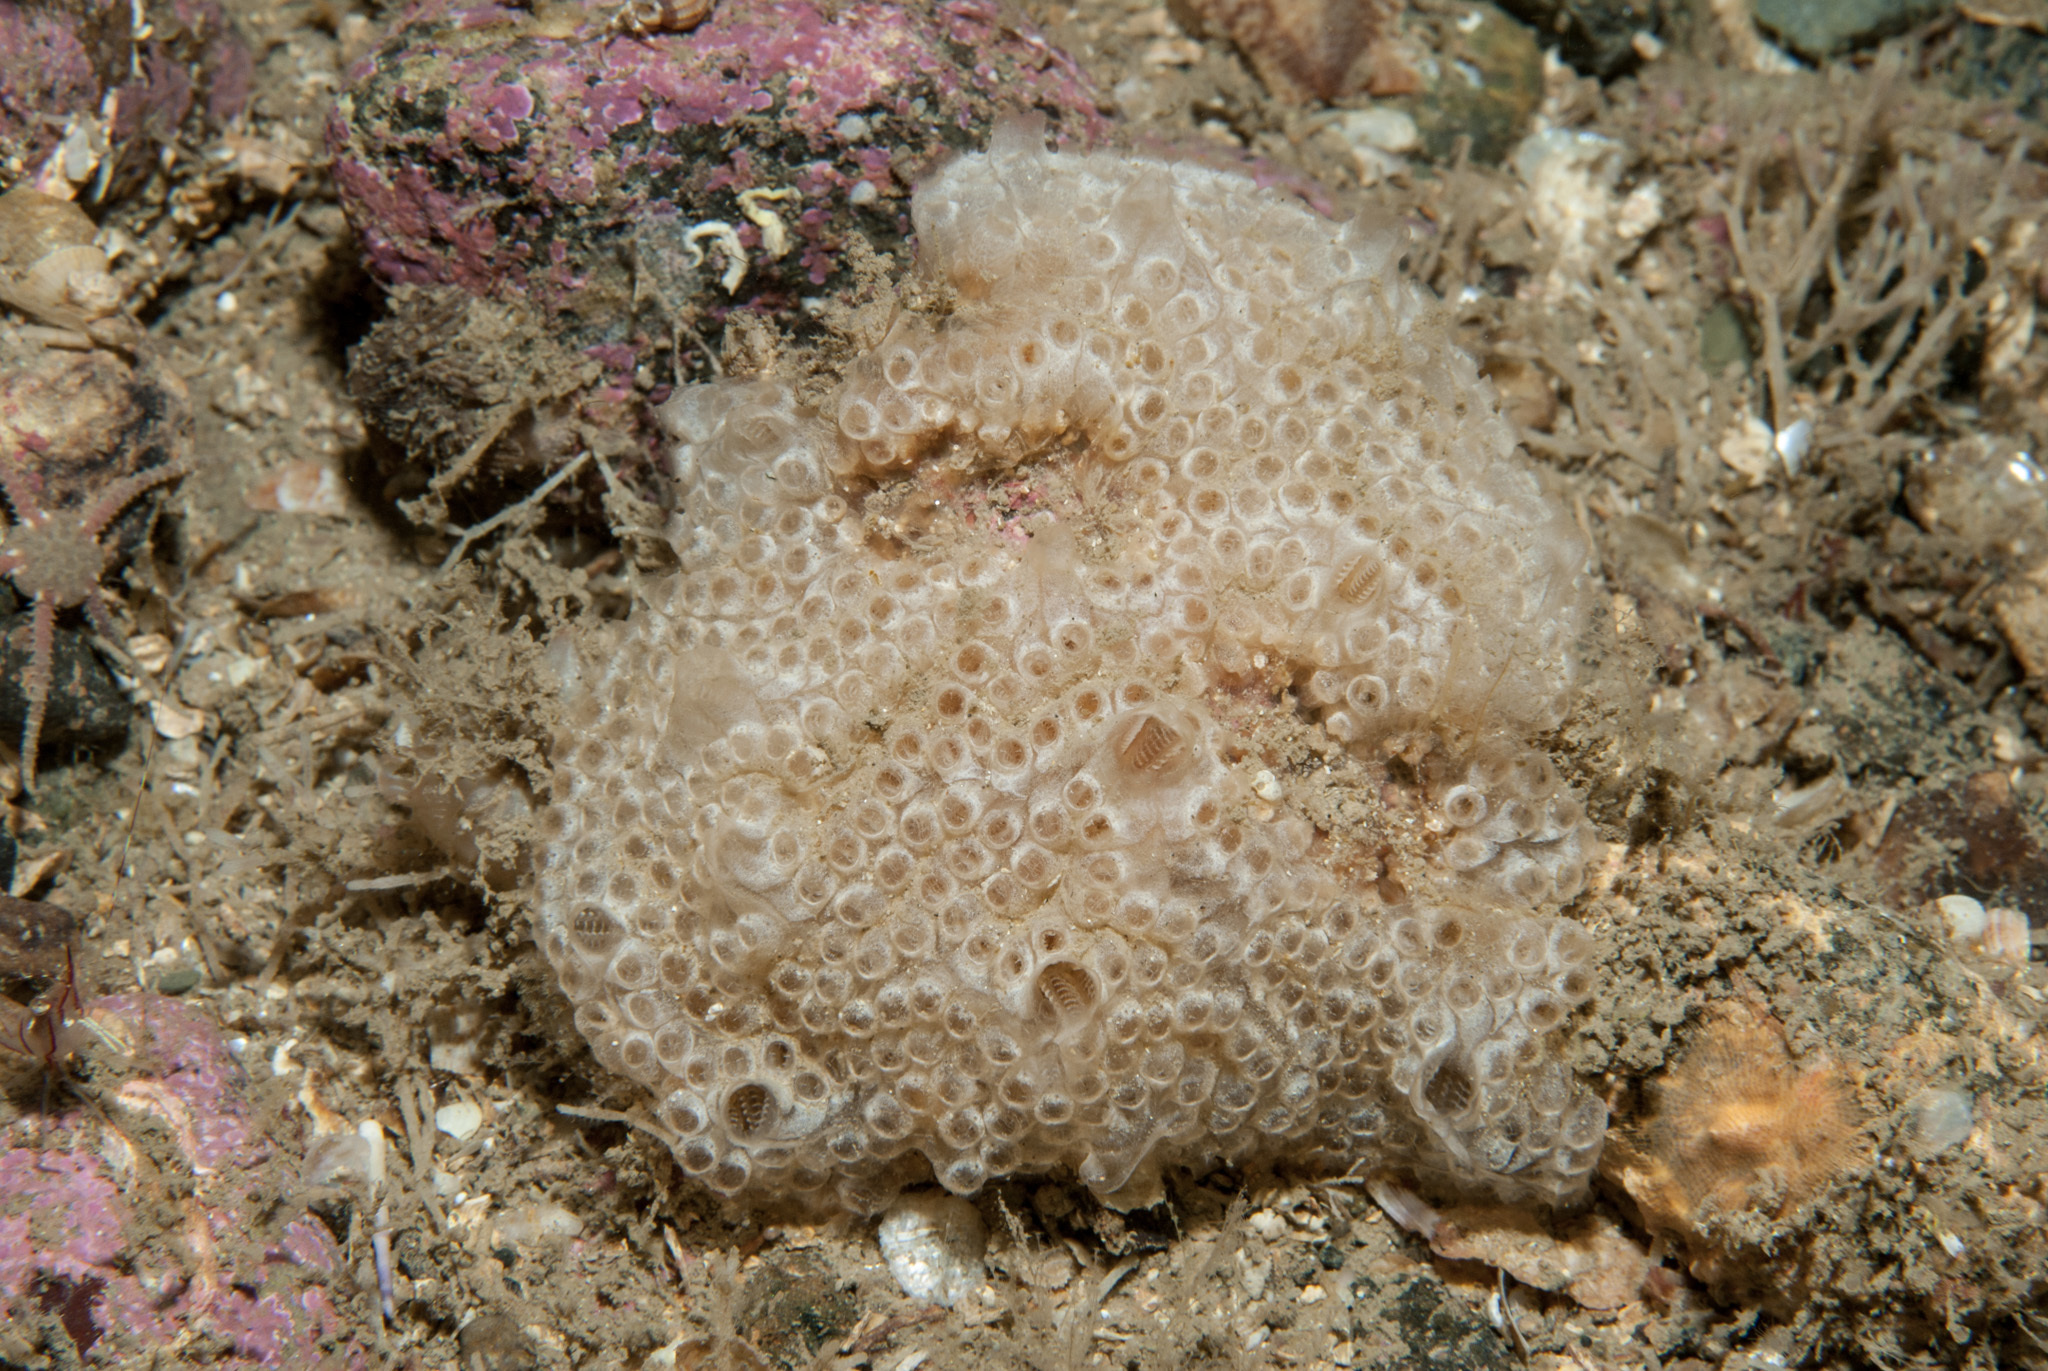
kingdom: Animalia
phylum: Chordata
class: Ascidiacea
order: Stolidobranchia
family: Styelidae
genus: Botrylloides
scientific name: Botrylloides leachii
